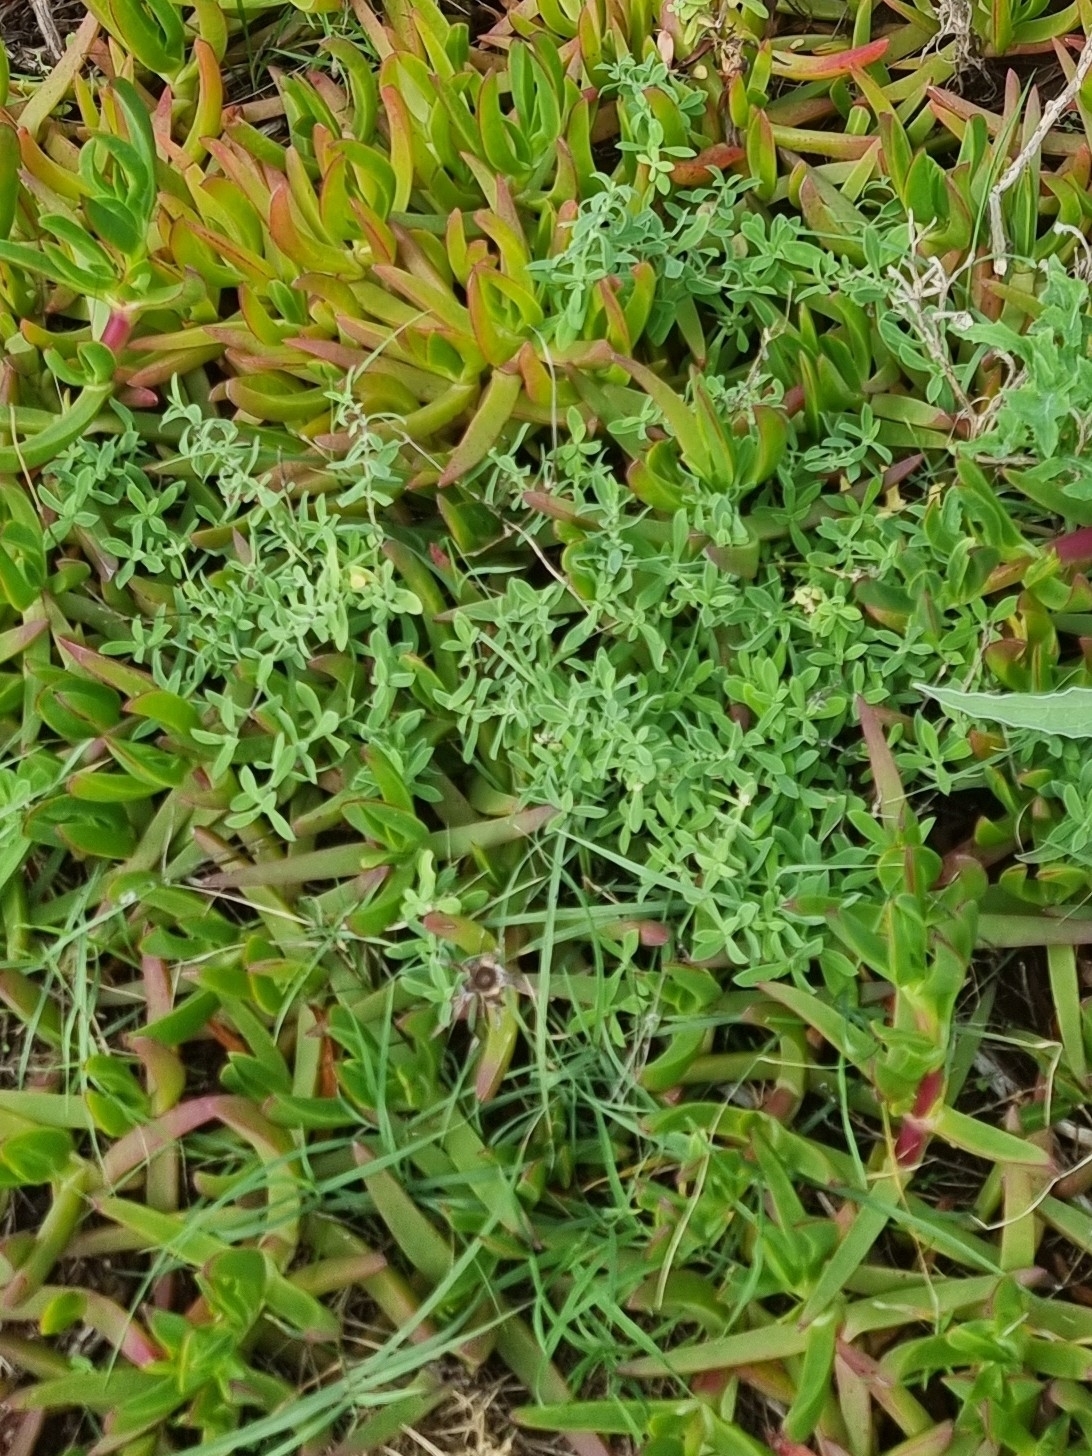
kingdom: Plantae
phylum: Tracheophyta
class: Magnoliopsida
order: Caryophyllales
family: Caryophyllaceae
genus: Silene
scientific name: Silene uniflora
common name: Sea campion
